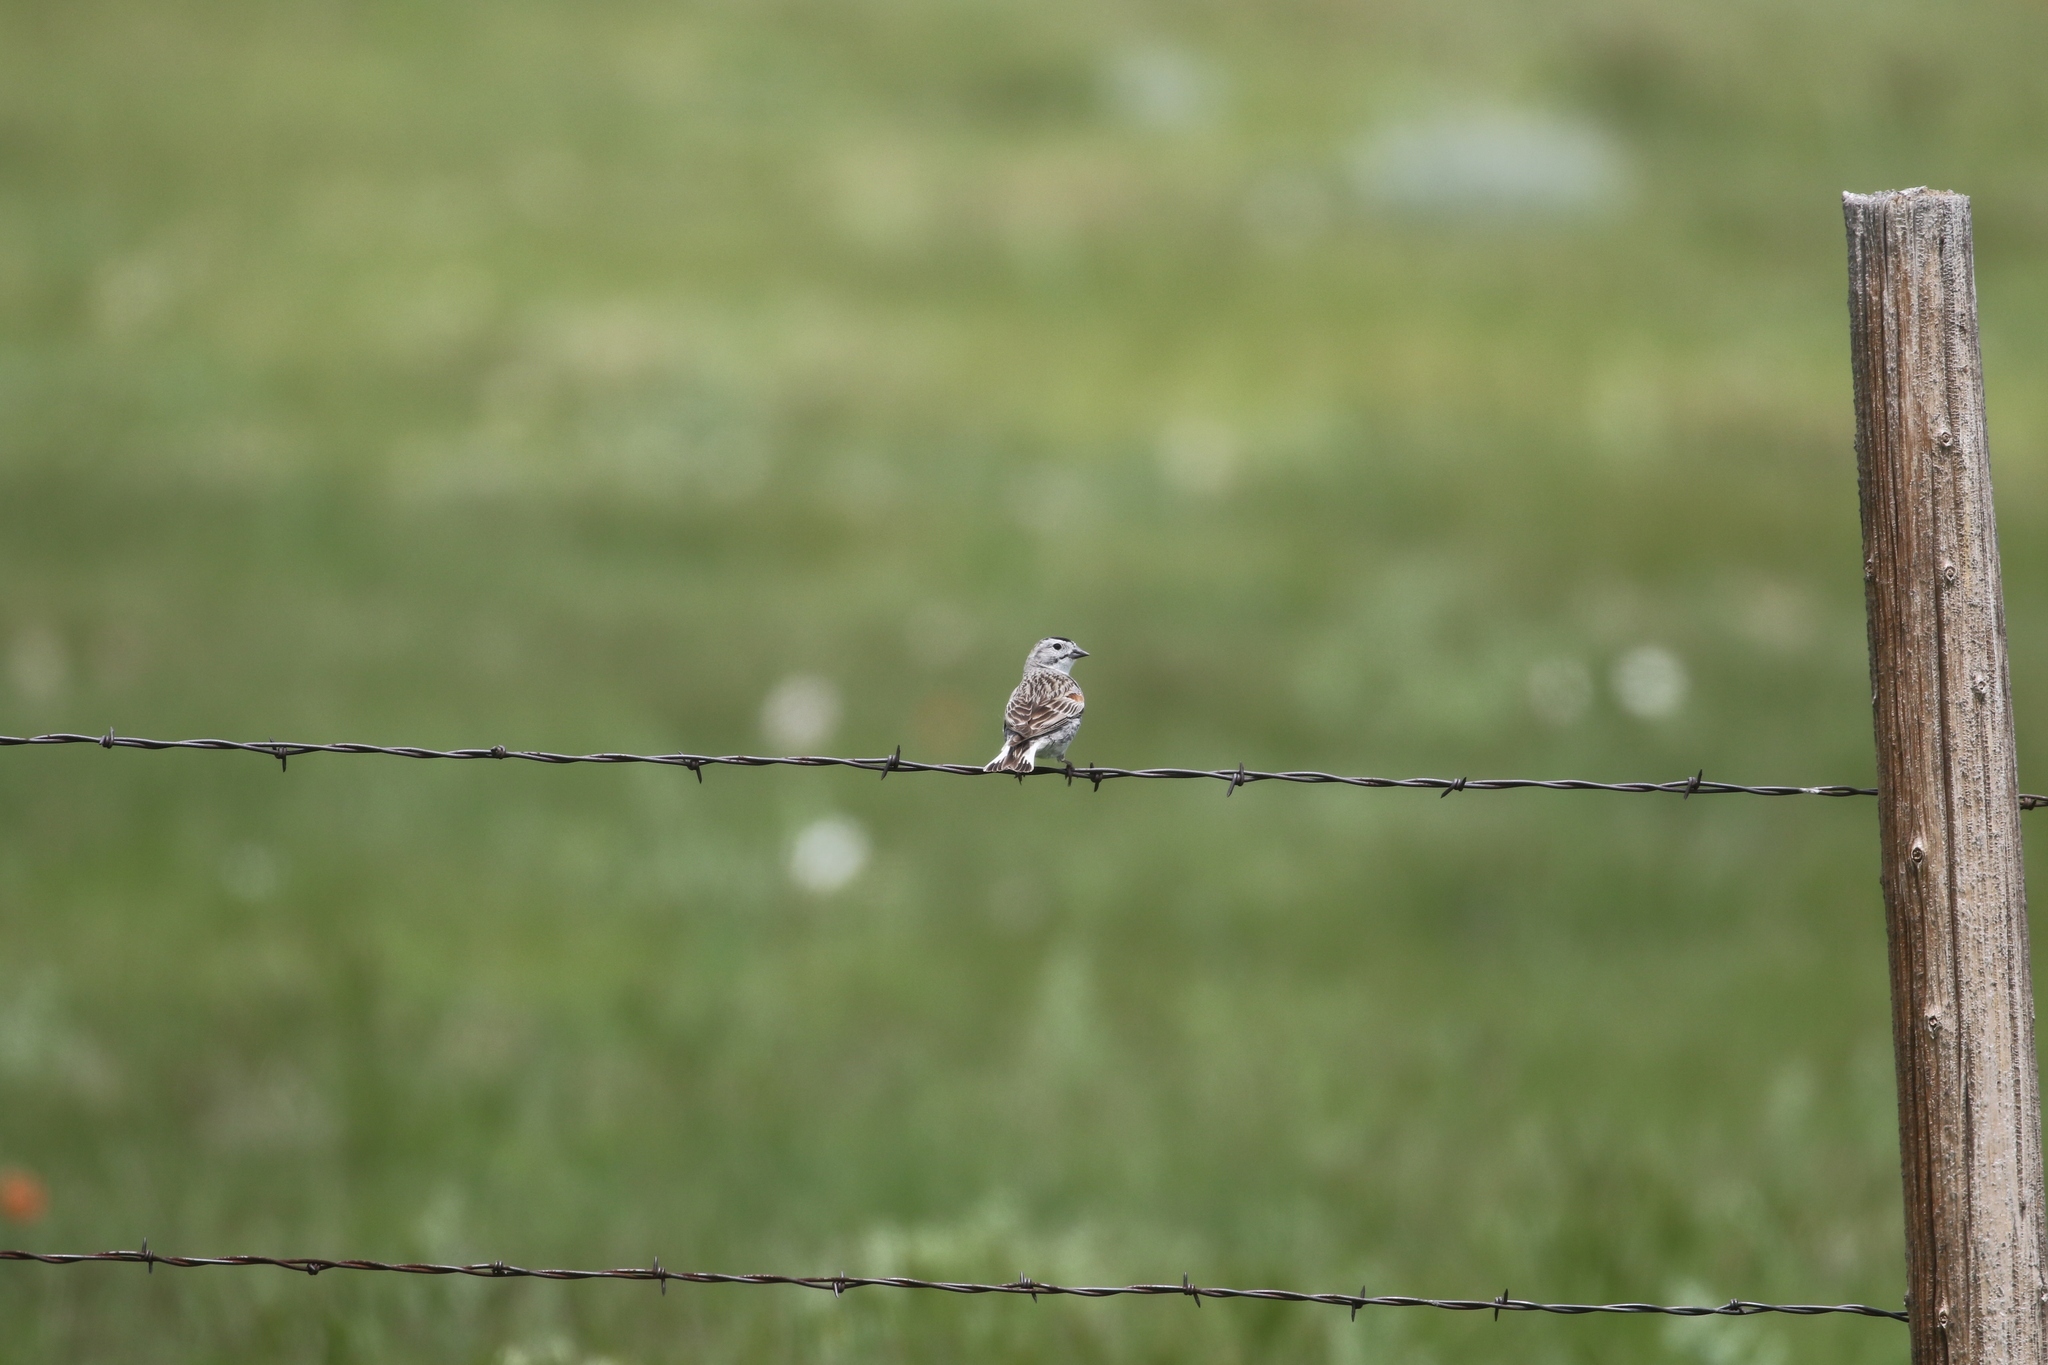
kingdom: Animalia
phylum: Chordata
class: Aves
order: Passeriformes
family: Calcariidae
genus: Rhynchophanes
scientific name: Rhynchophanes mccownii
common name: Mccown's longspur
